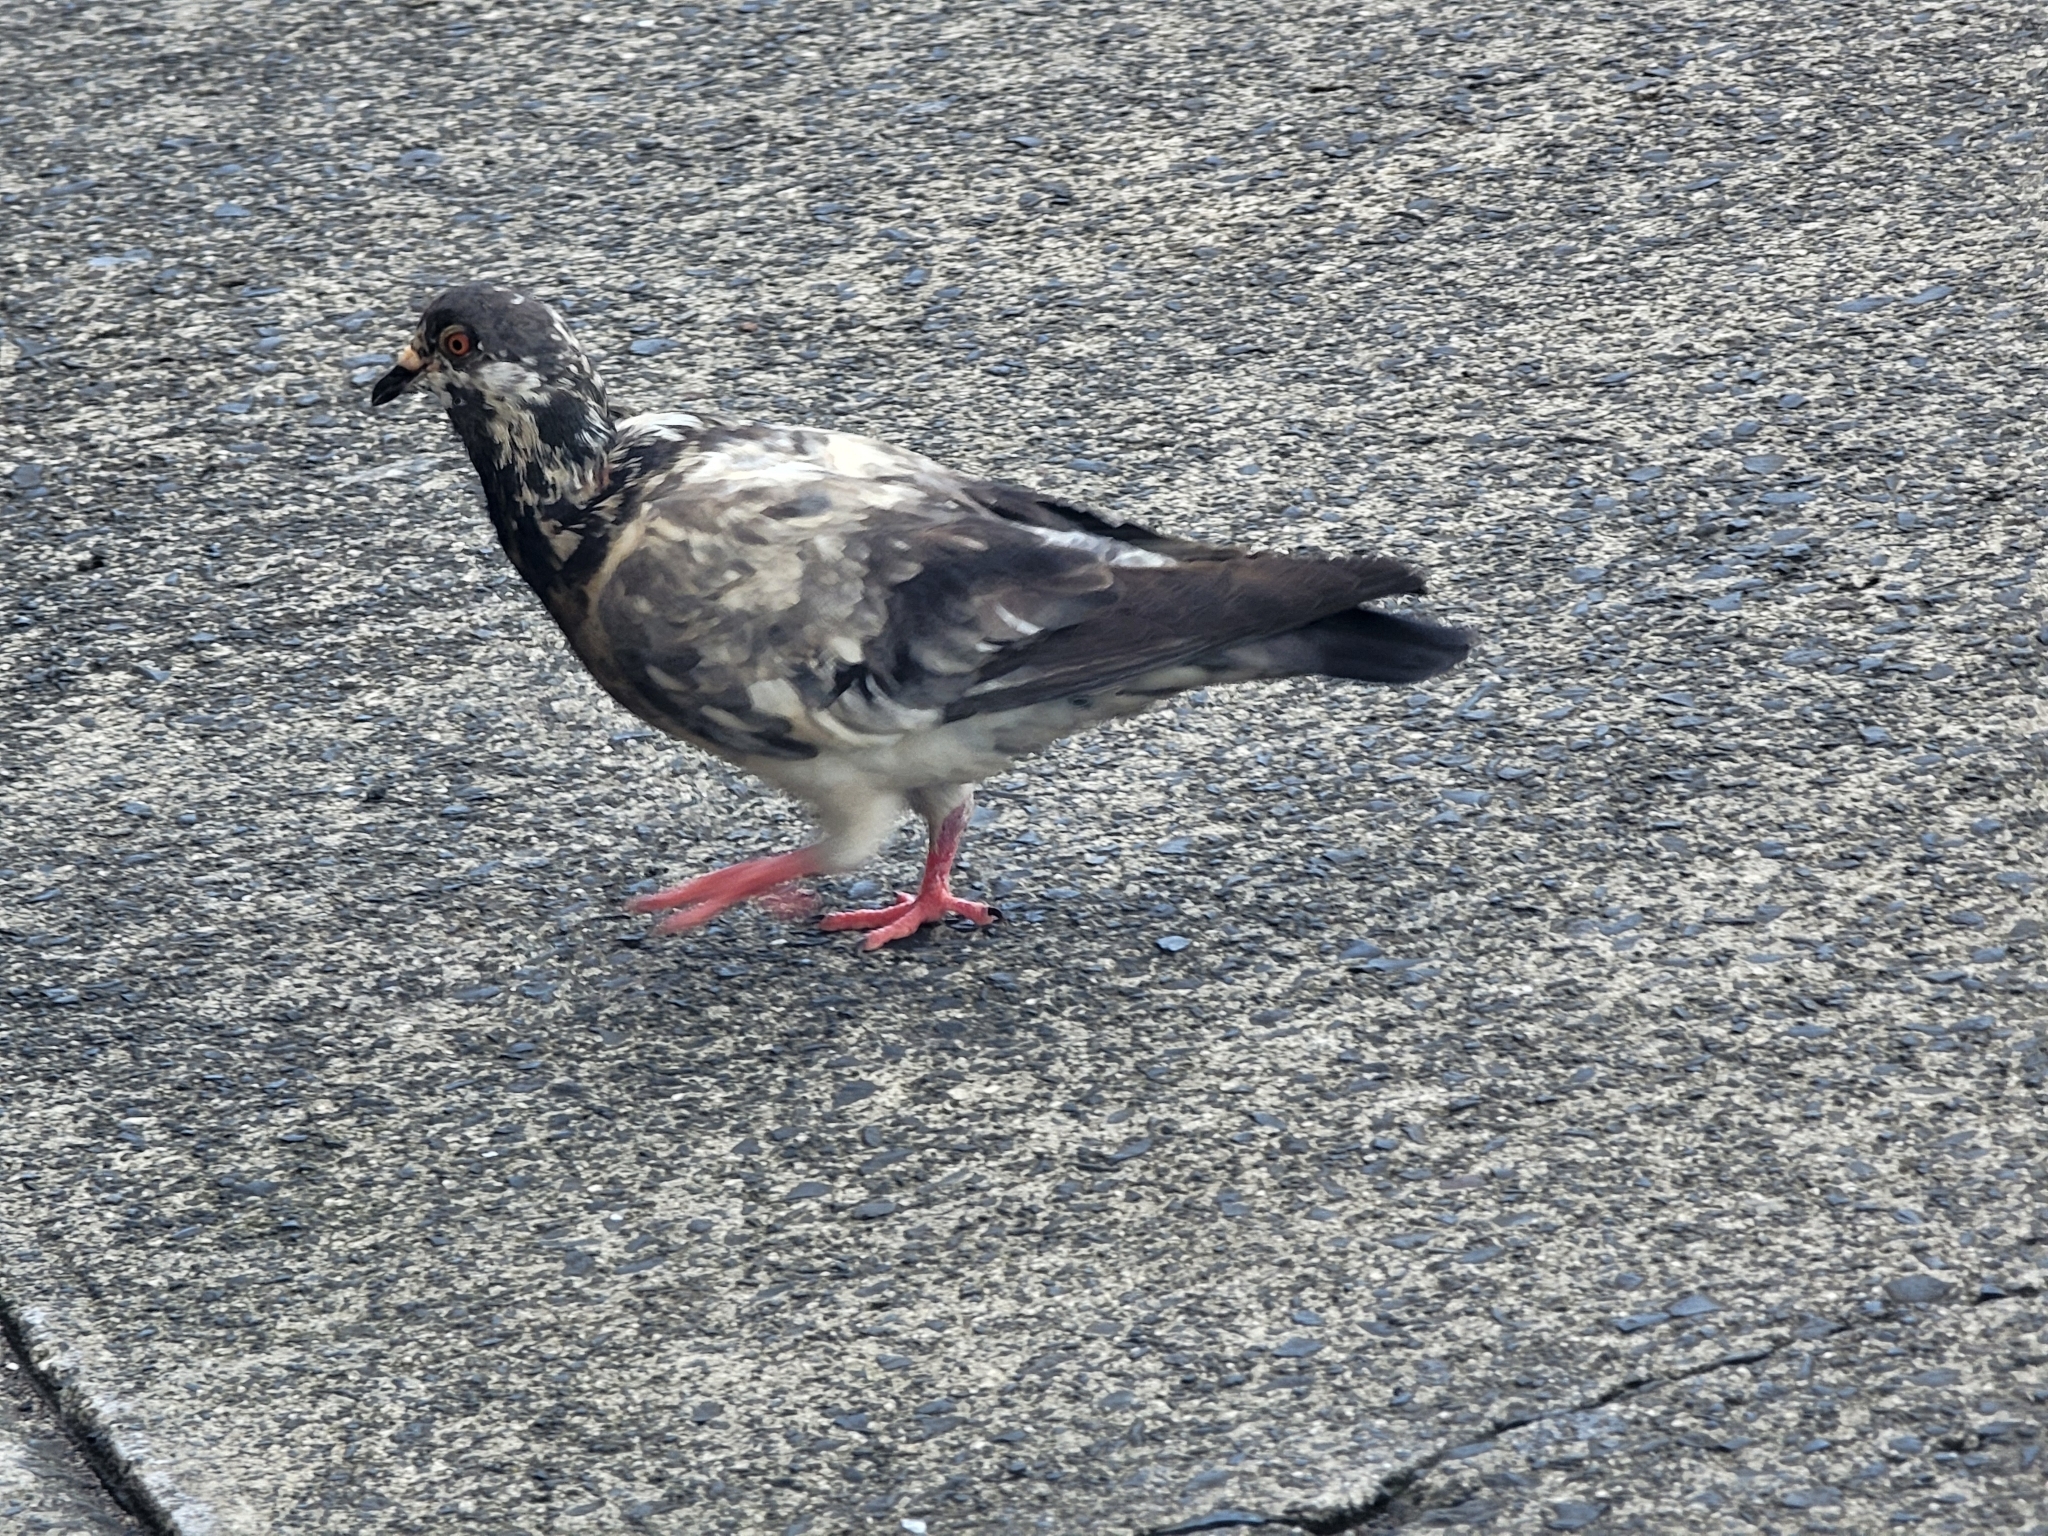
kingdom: Animalia
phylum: Chordata
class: Aves
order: Columbiformes
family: Columbidae
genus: Columba
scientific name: Columba livia
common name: Rock pigeon
